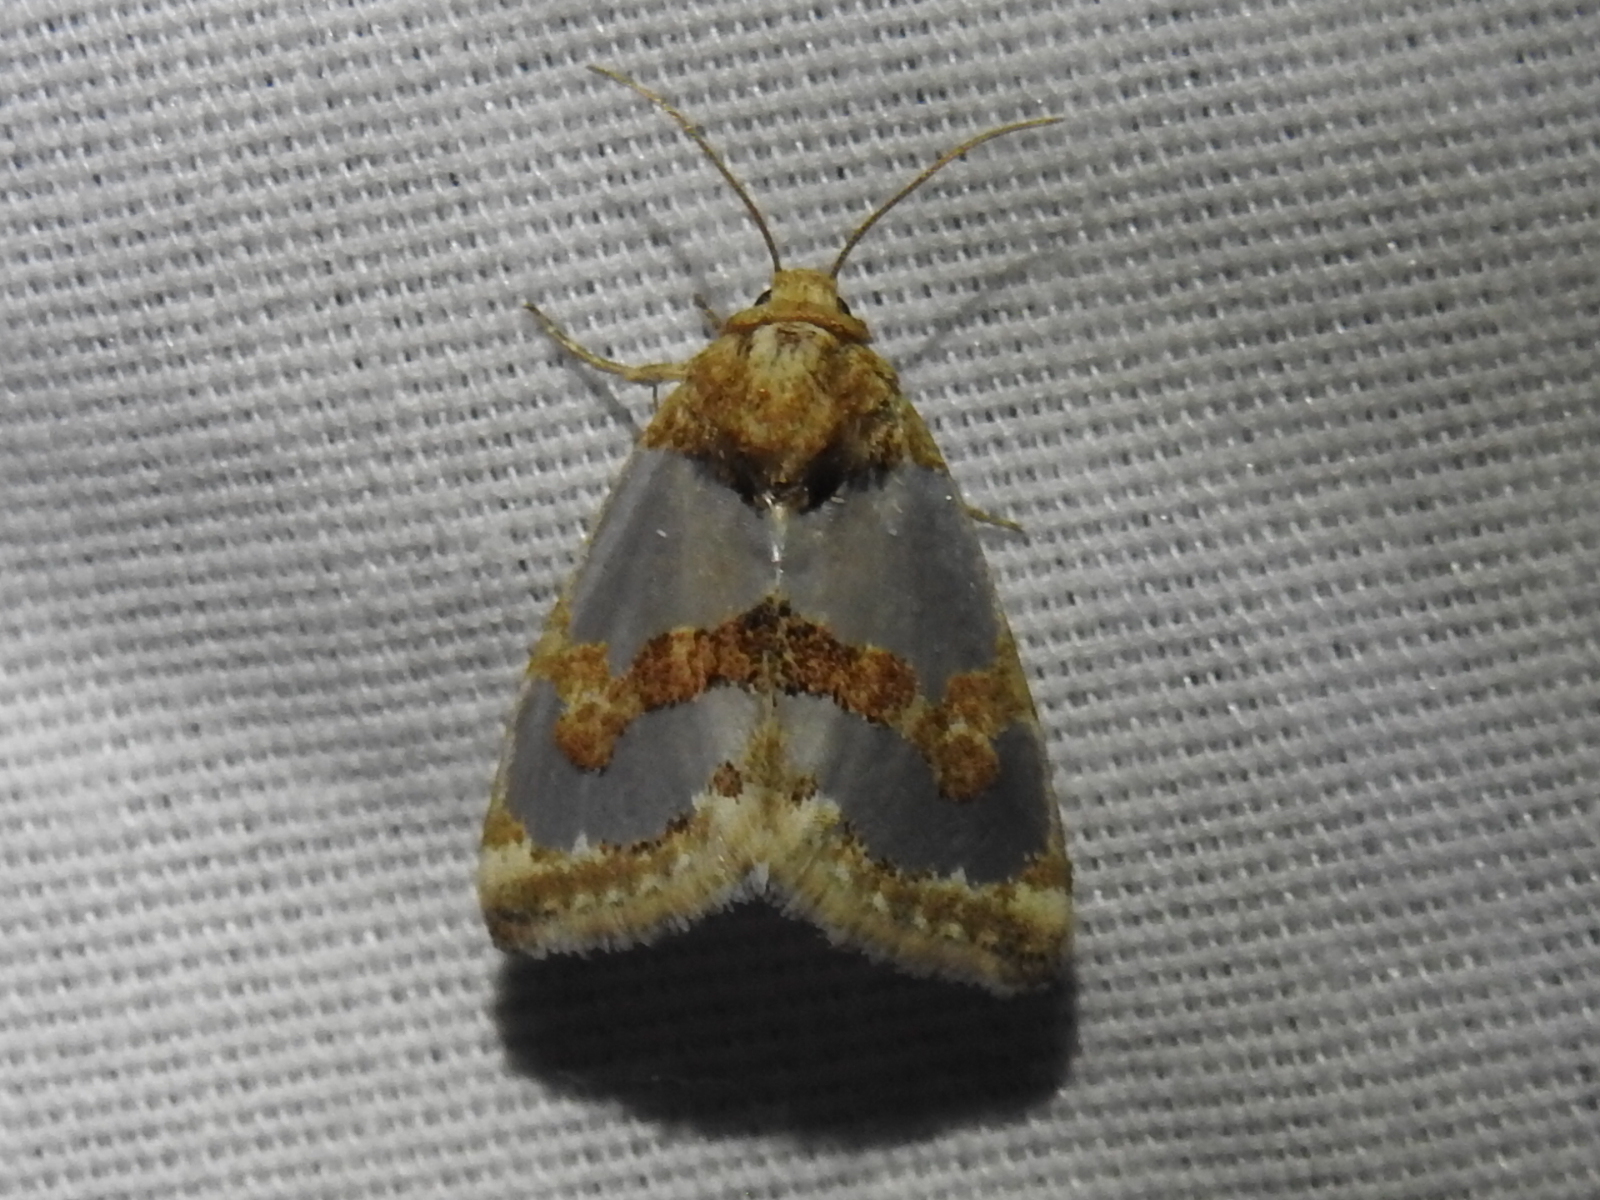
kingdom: Animalia
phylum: Arthropoda
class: Insecta
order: Lepidoptera
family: Noctuidae
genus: Schinia
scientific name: Schinia chrysellus
